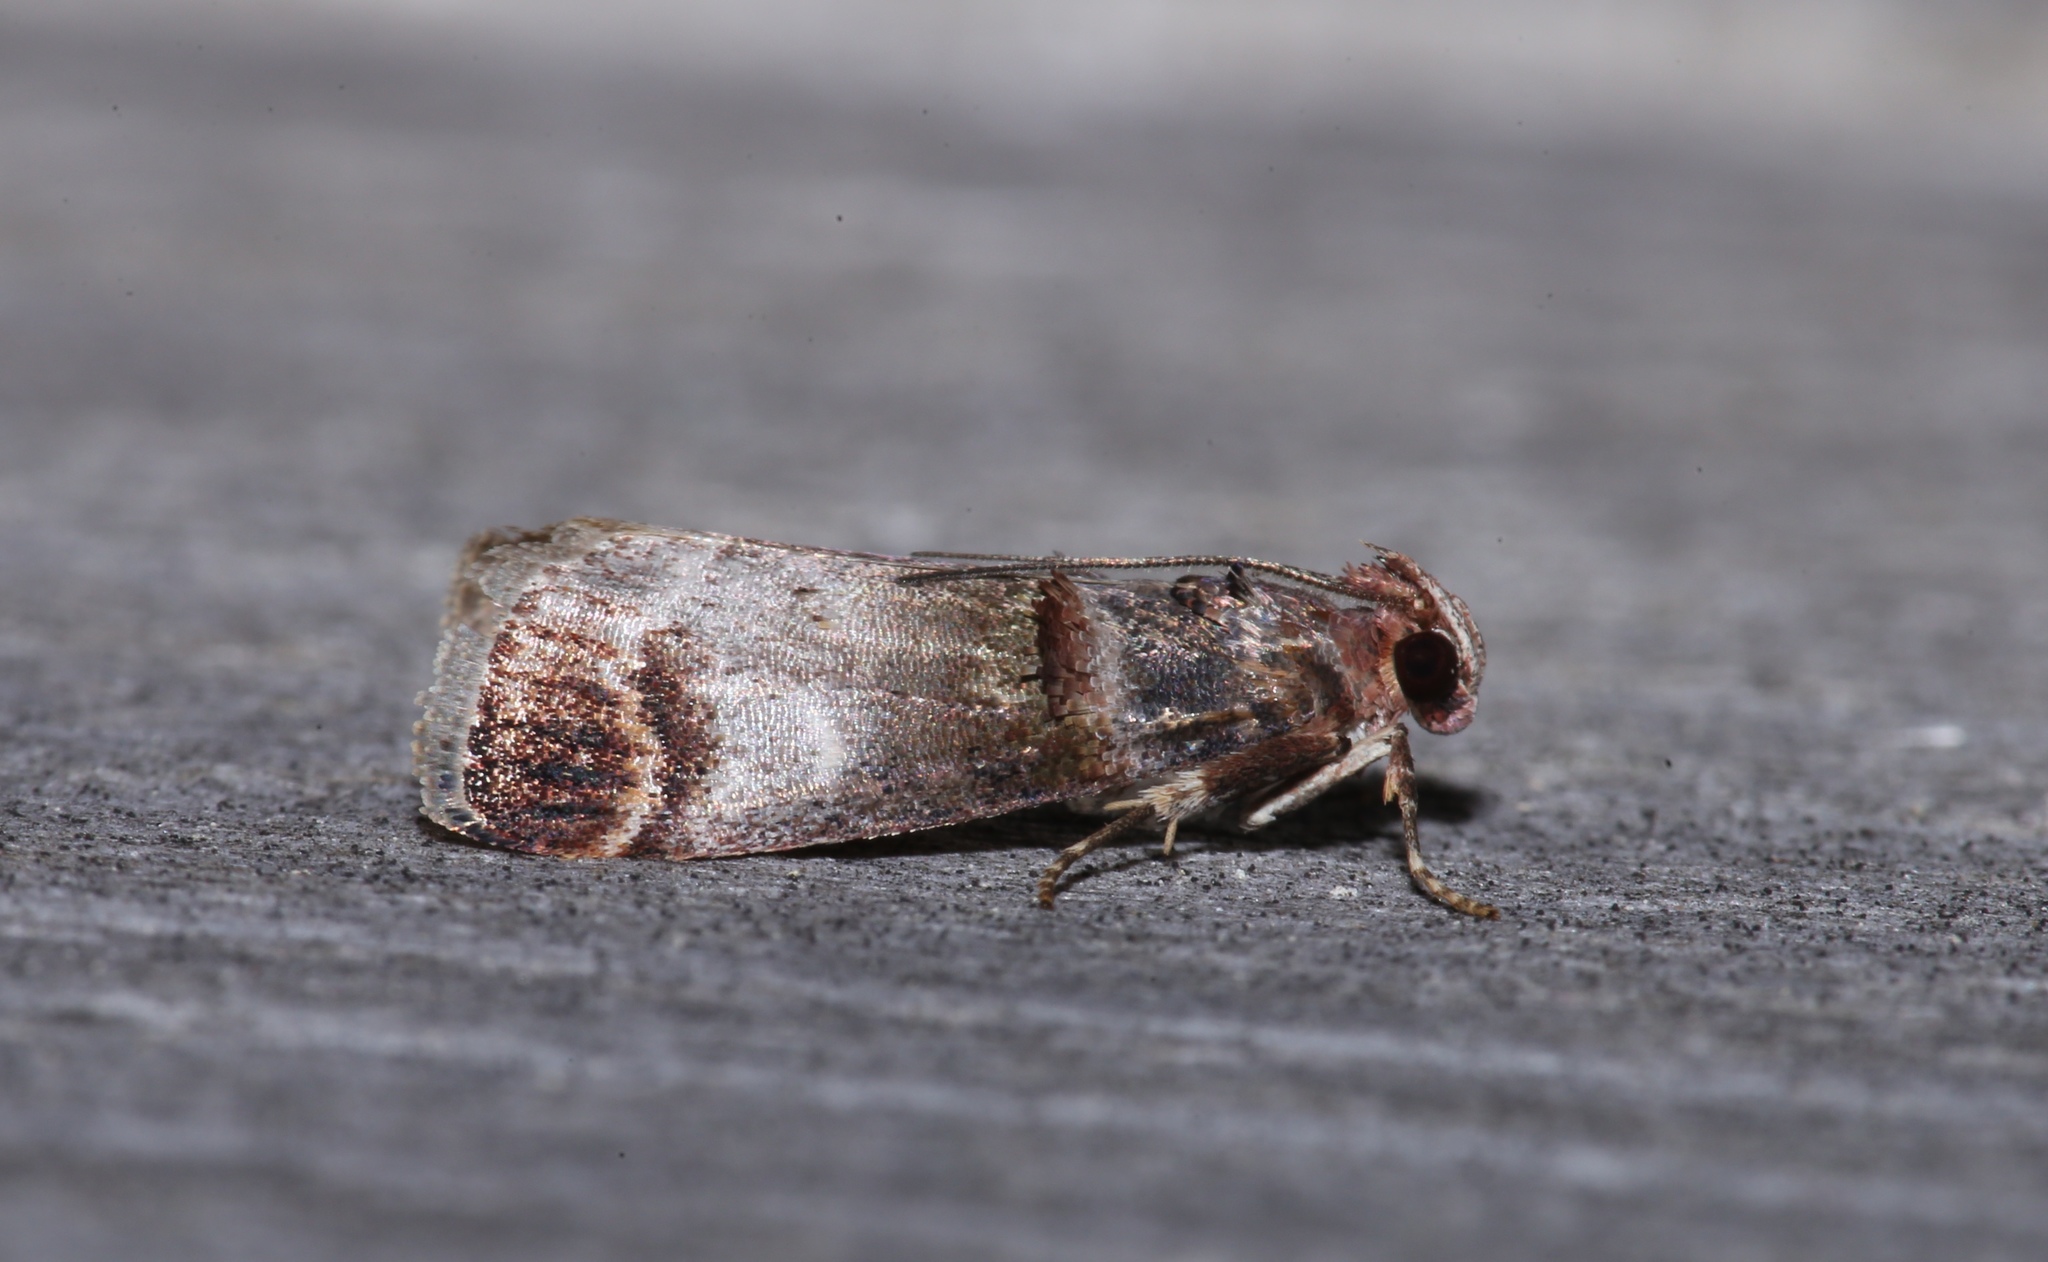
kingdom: Animalia
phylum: Arthropoda
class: Insecta
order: Lepidoptera
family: Pyralidae
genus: Oneida
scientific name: Oneida lunulalis
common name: Orange-tufted oneida moth
